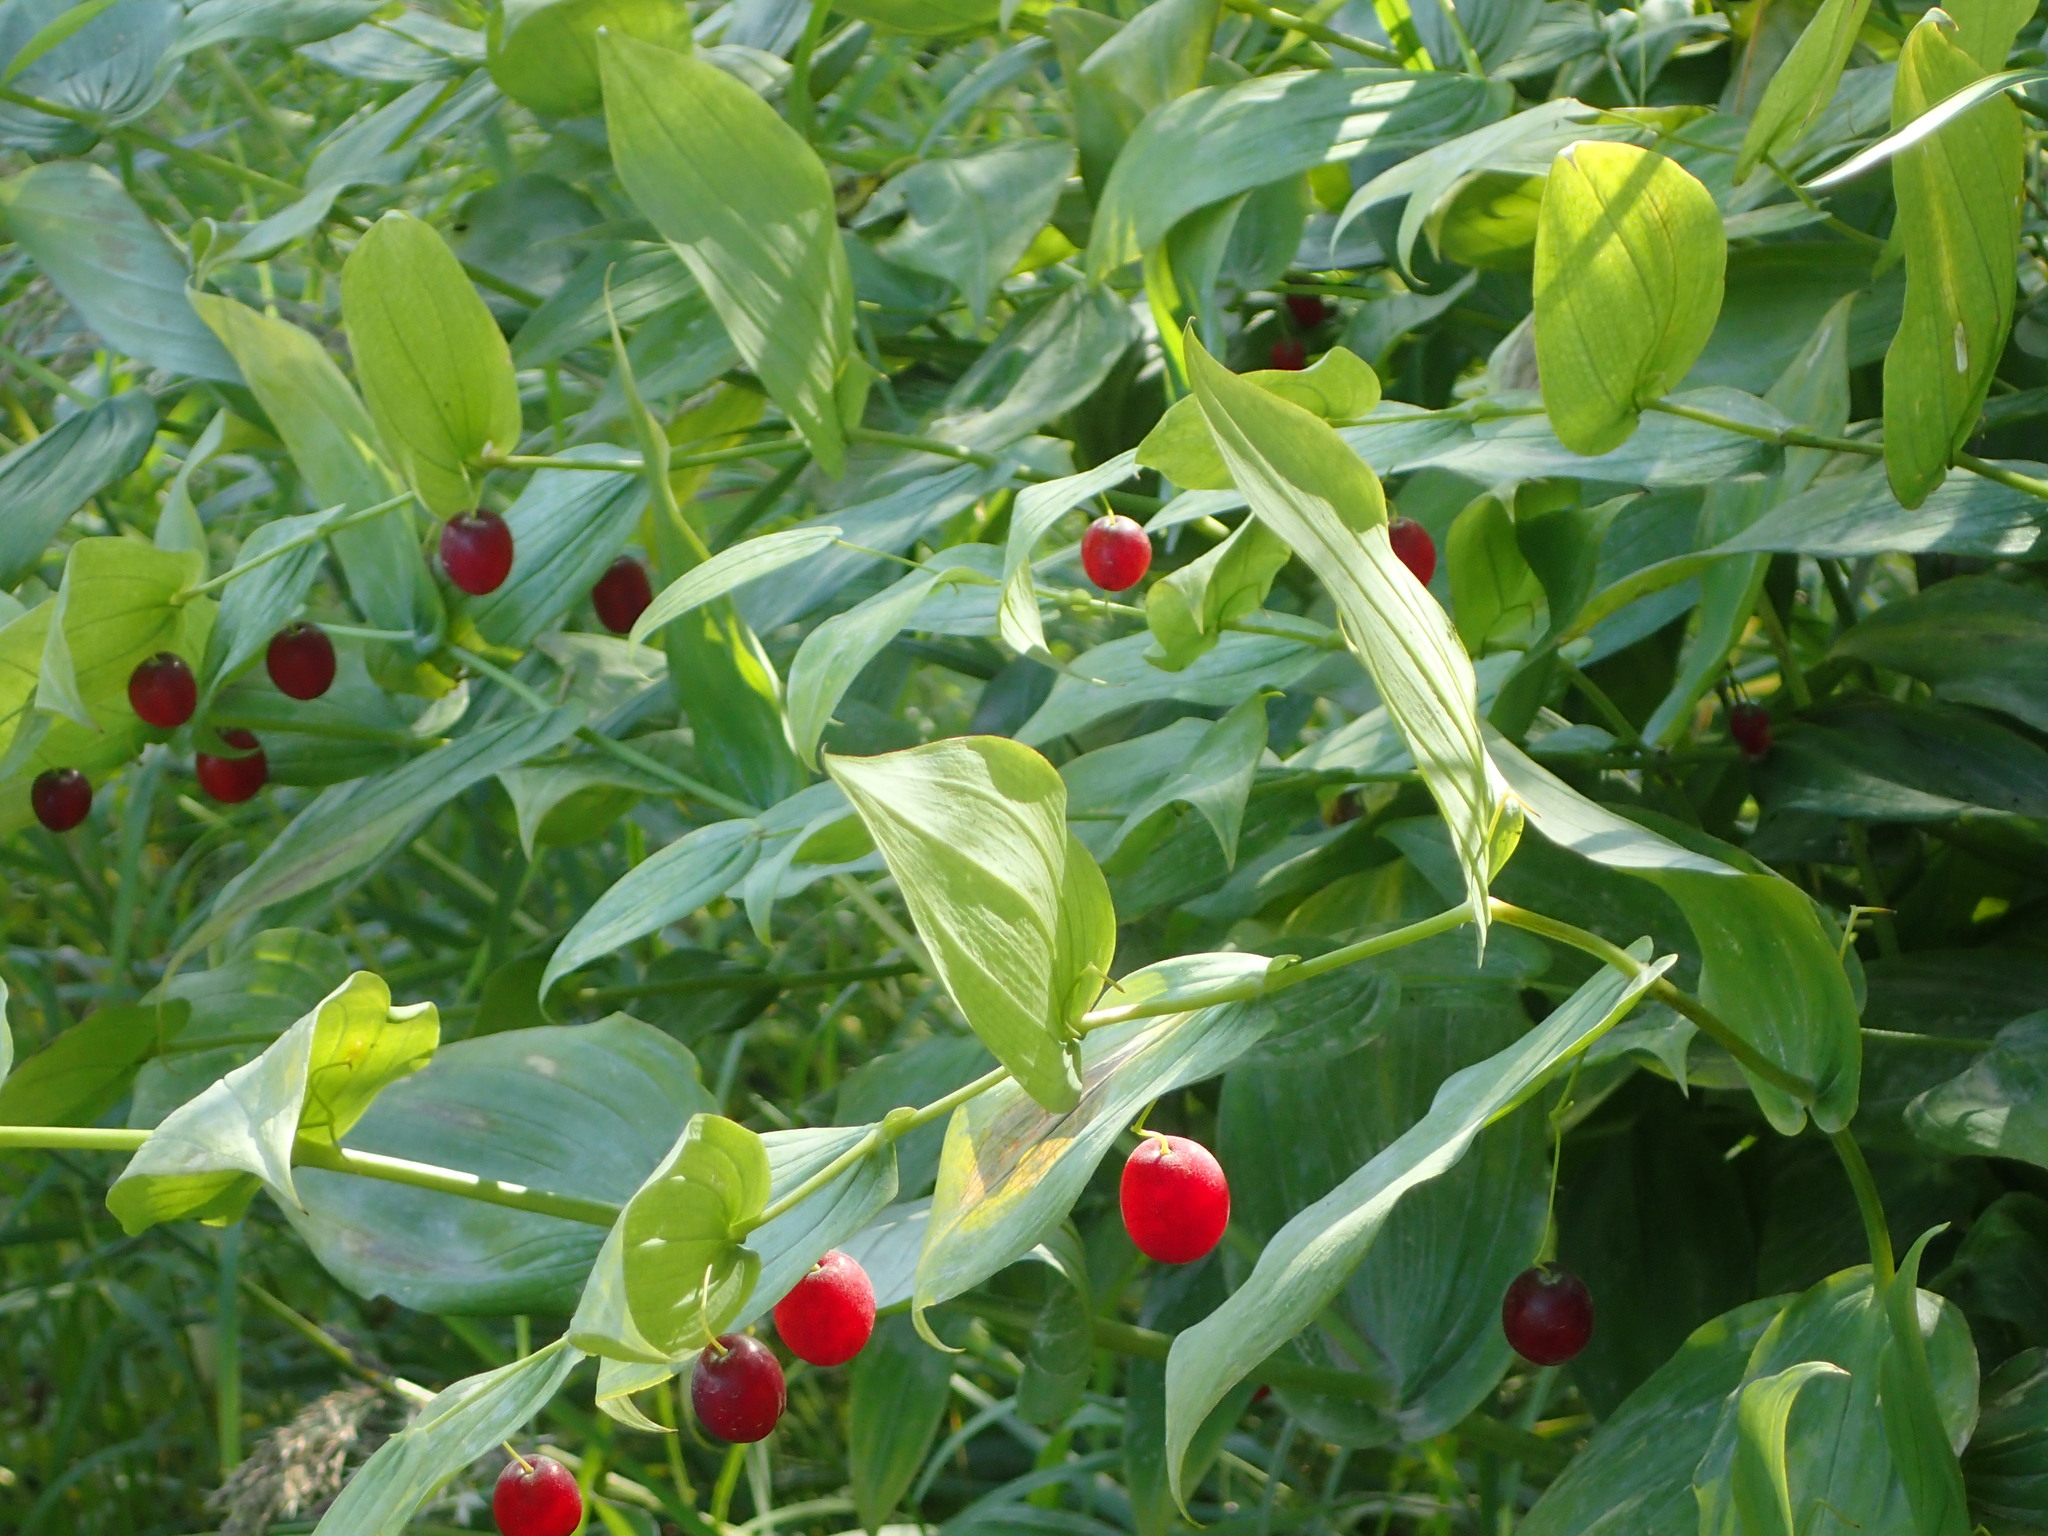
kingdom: Plantae
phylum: Tracheophyta
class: Liliopsida
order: Liliales
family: Liliaceae
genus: Streptopus
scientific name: Streptopus amplexifolius
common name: Clasp twisted stalk
